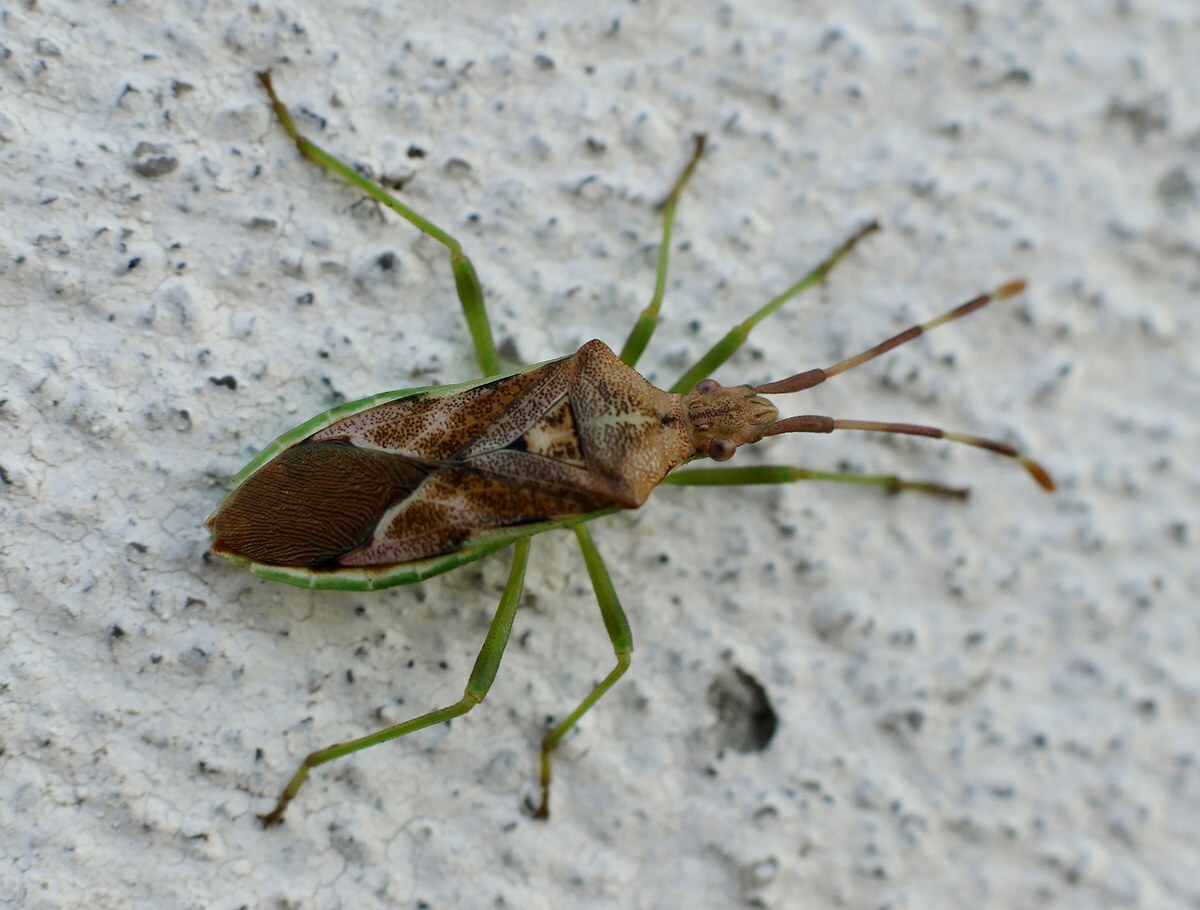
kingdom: Animalia
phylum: Arthropoda
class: Insecta
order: Hemiptera
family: Coreidae
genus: Gonocerus
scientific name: Gonocerus juniperi
